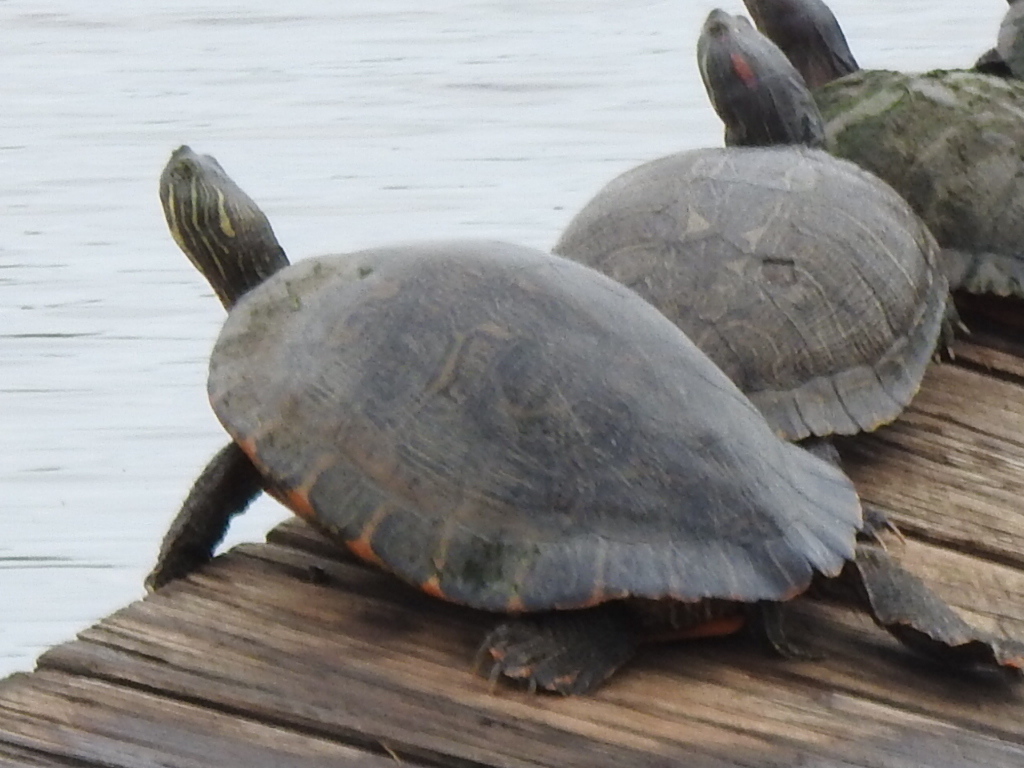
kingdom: Animalia
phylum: Chordata
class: Testudines
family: Emydidae
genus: Pseudemys
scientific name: Pseudemys concinna
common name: Eastern river cooter
